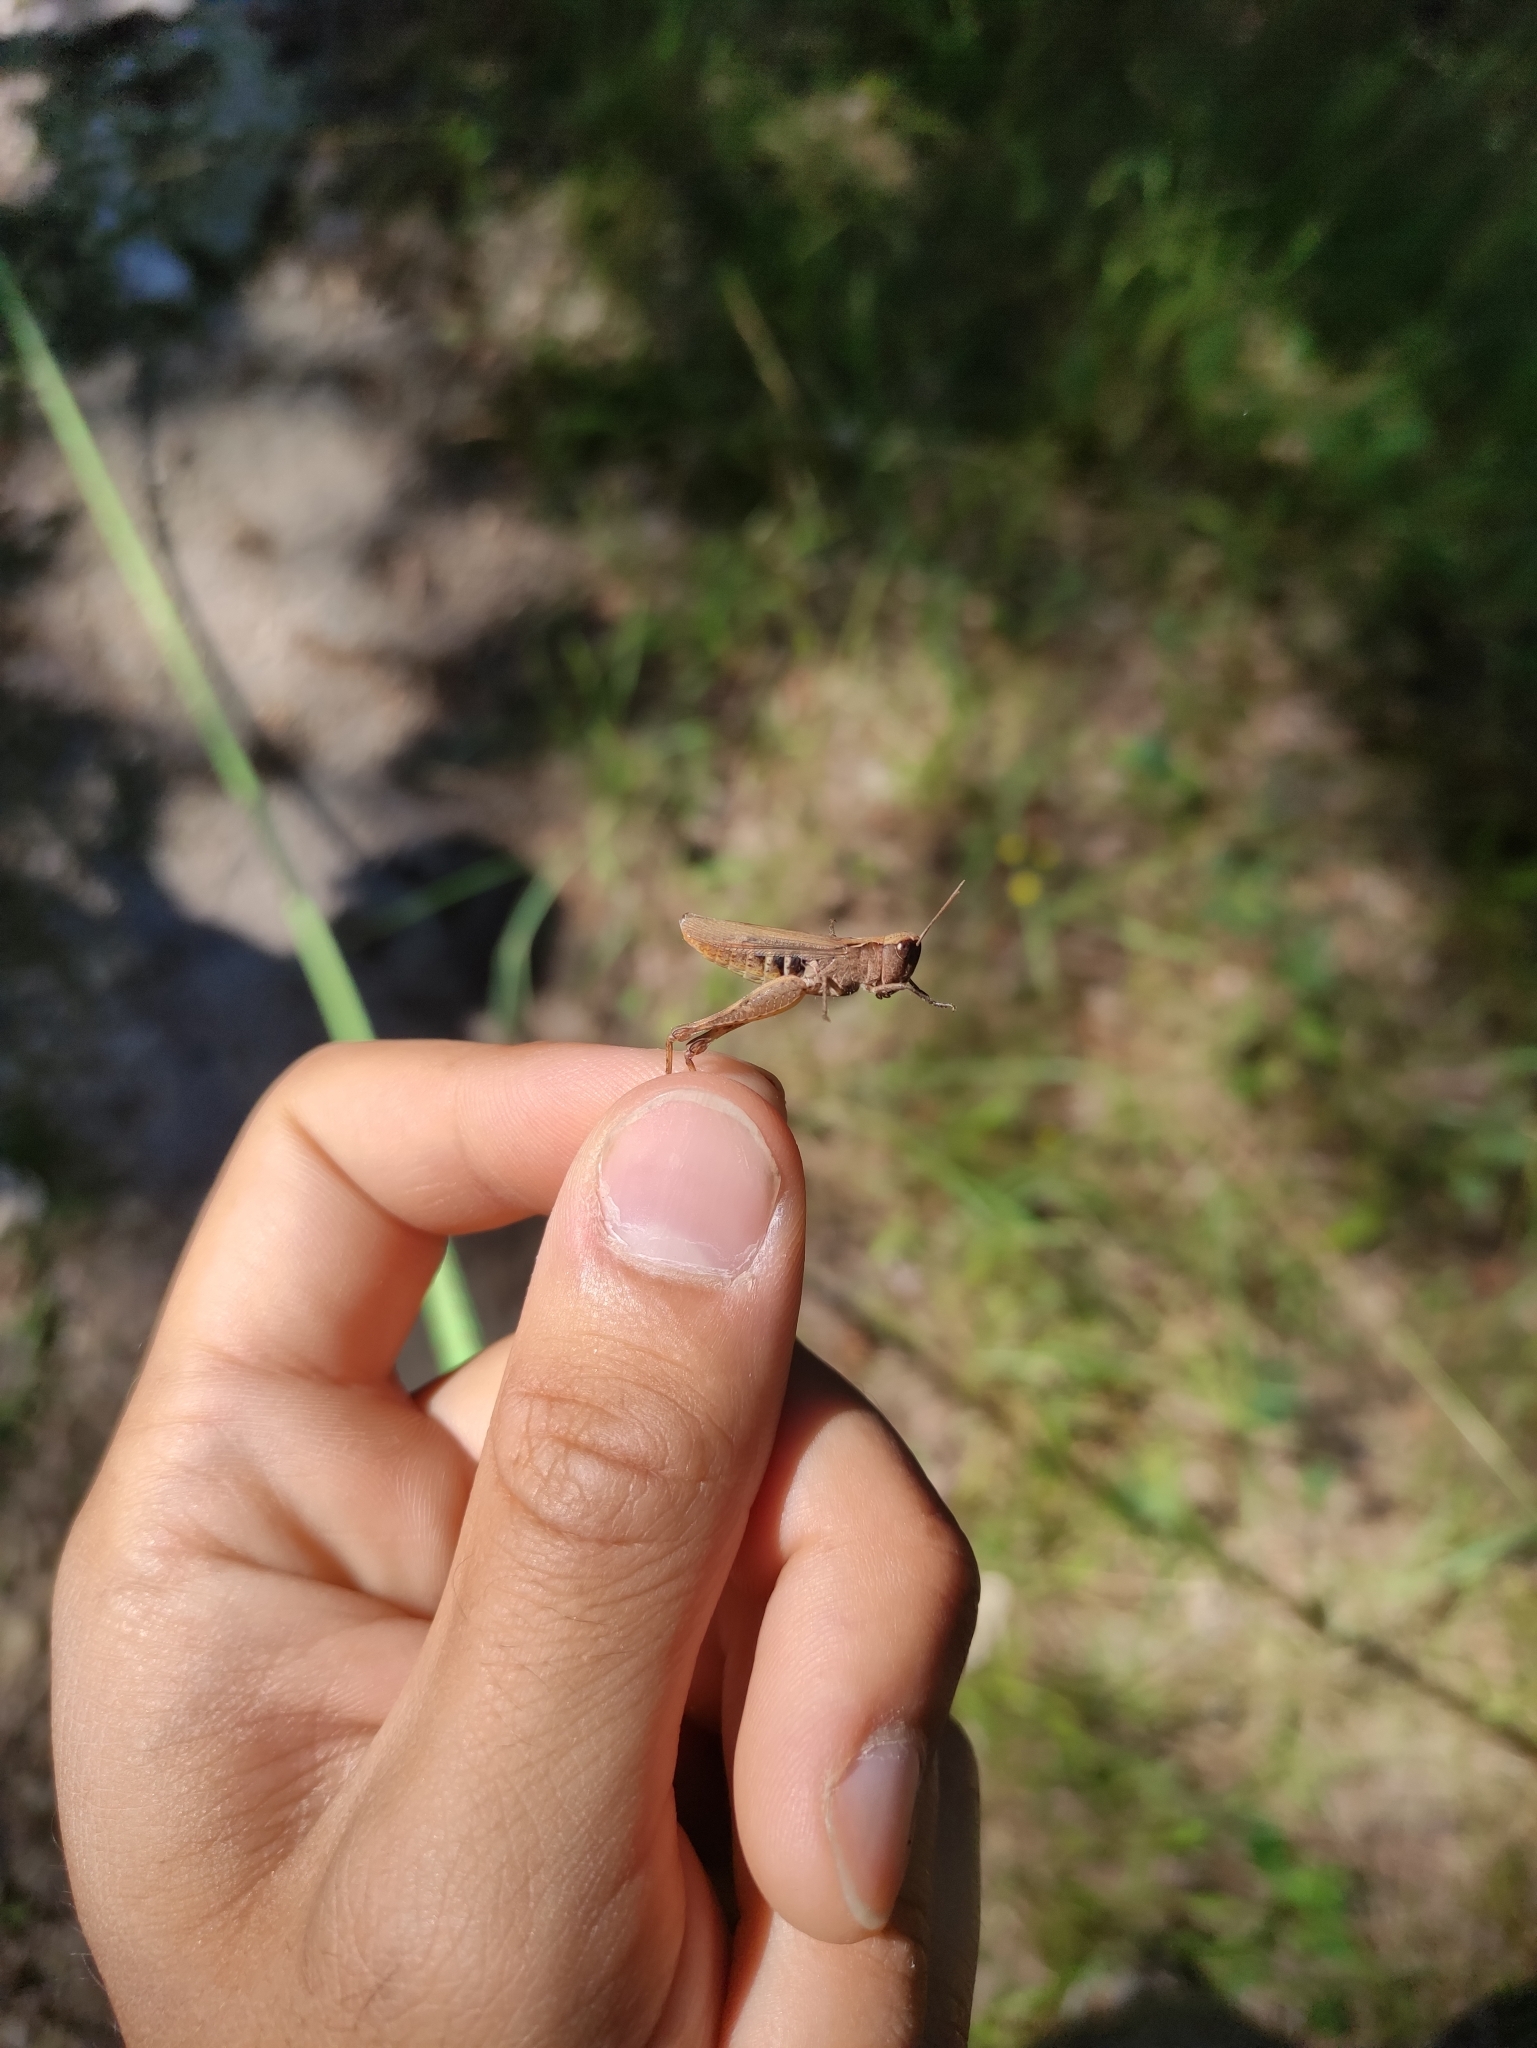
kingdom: Animalia
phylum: Arthropoda
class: Insecta
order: Orthoptera
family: Acrididae
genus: Chorthippus
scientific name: Chorthippus vagans
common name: Heath grasshopper
